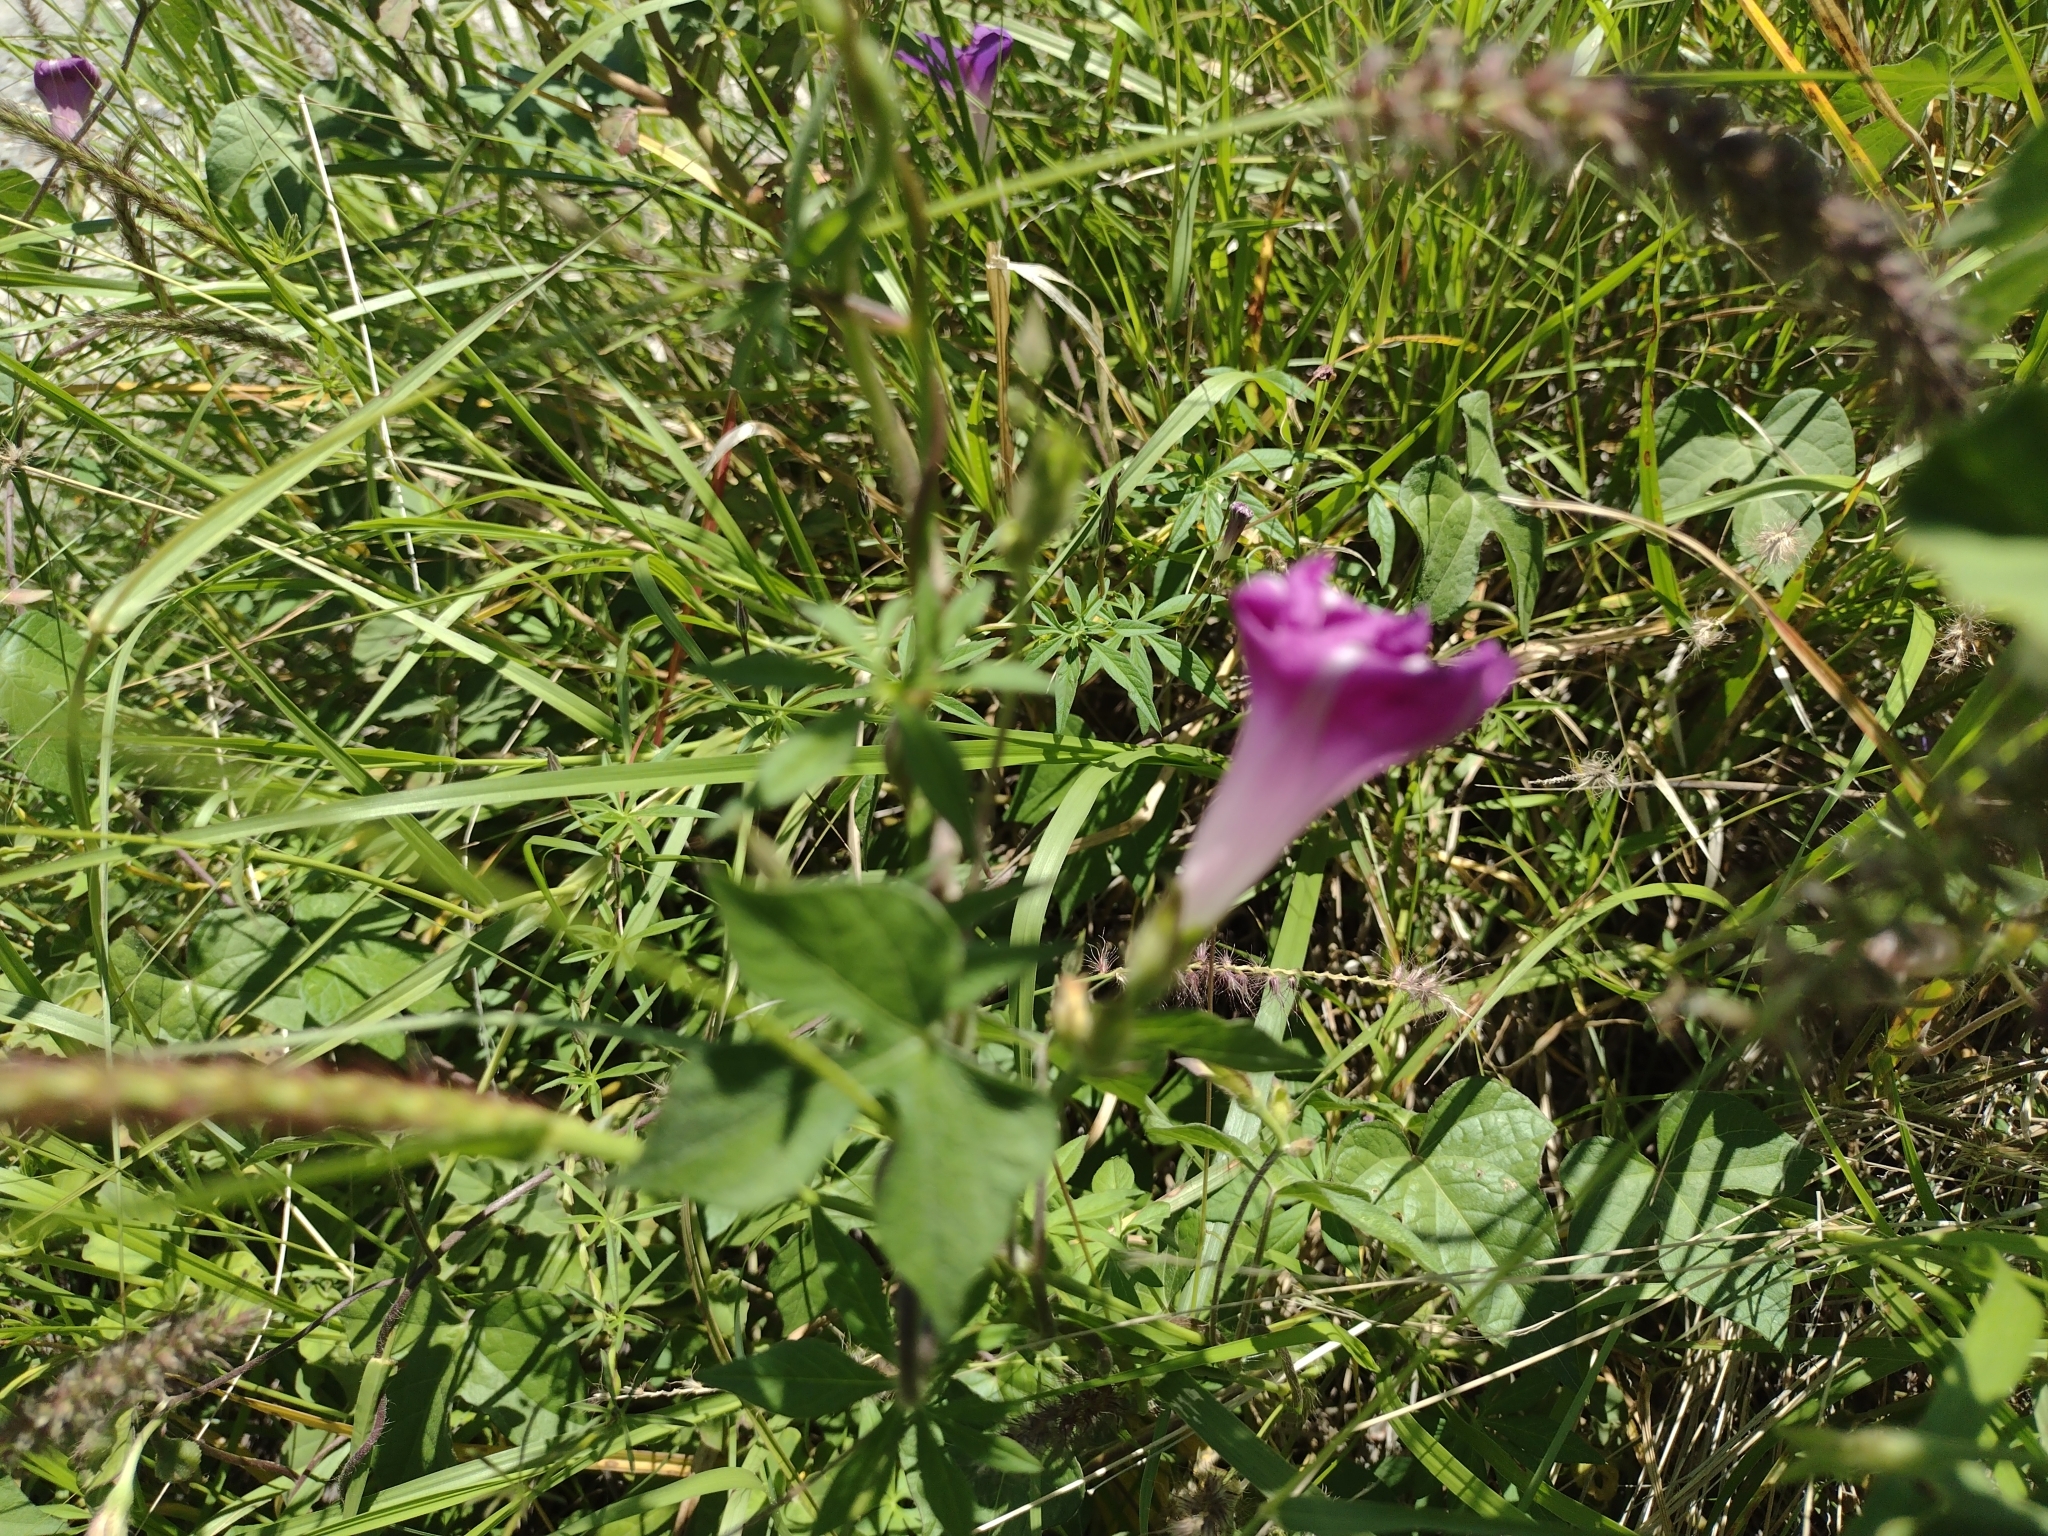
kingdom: Plantae
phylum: Tracheophyta
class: Magnoliopsida
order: Solanales
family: Convolvulaceae
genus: Ipomoea
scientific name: Ipomoea purpurea
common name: Common morning-glory
